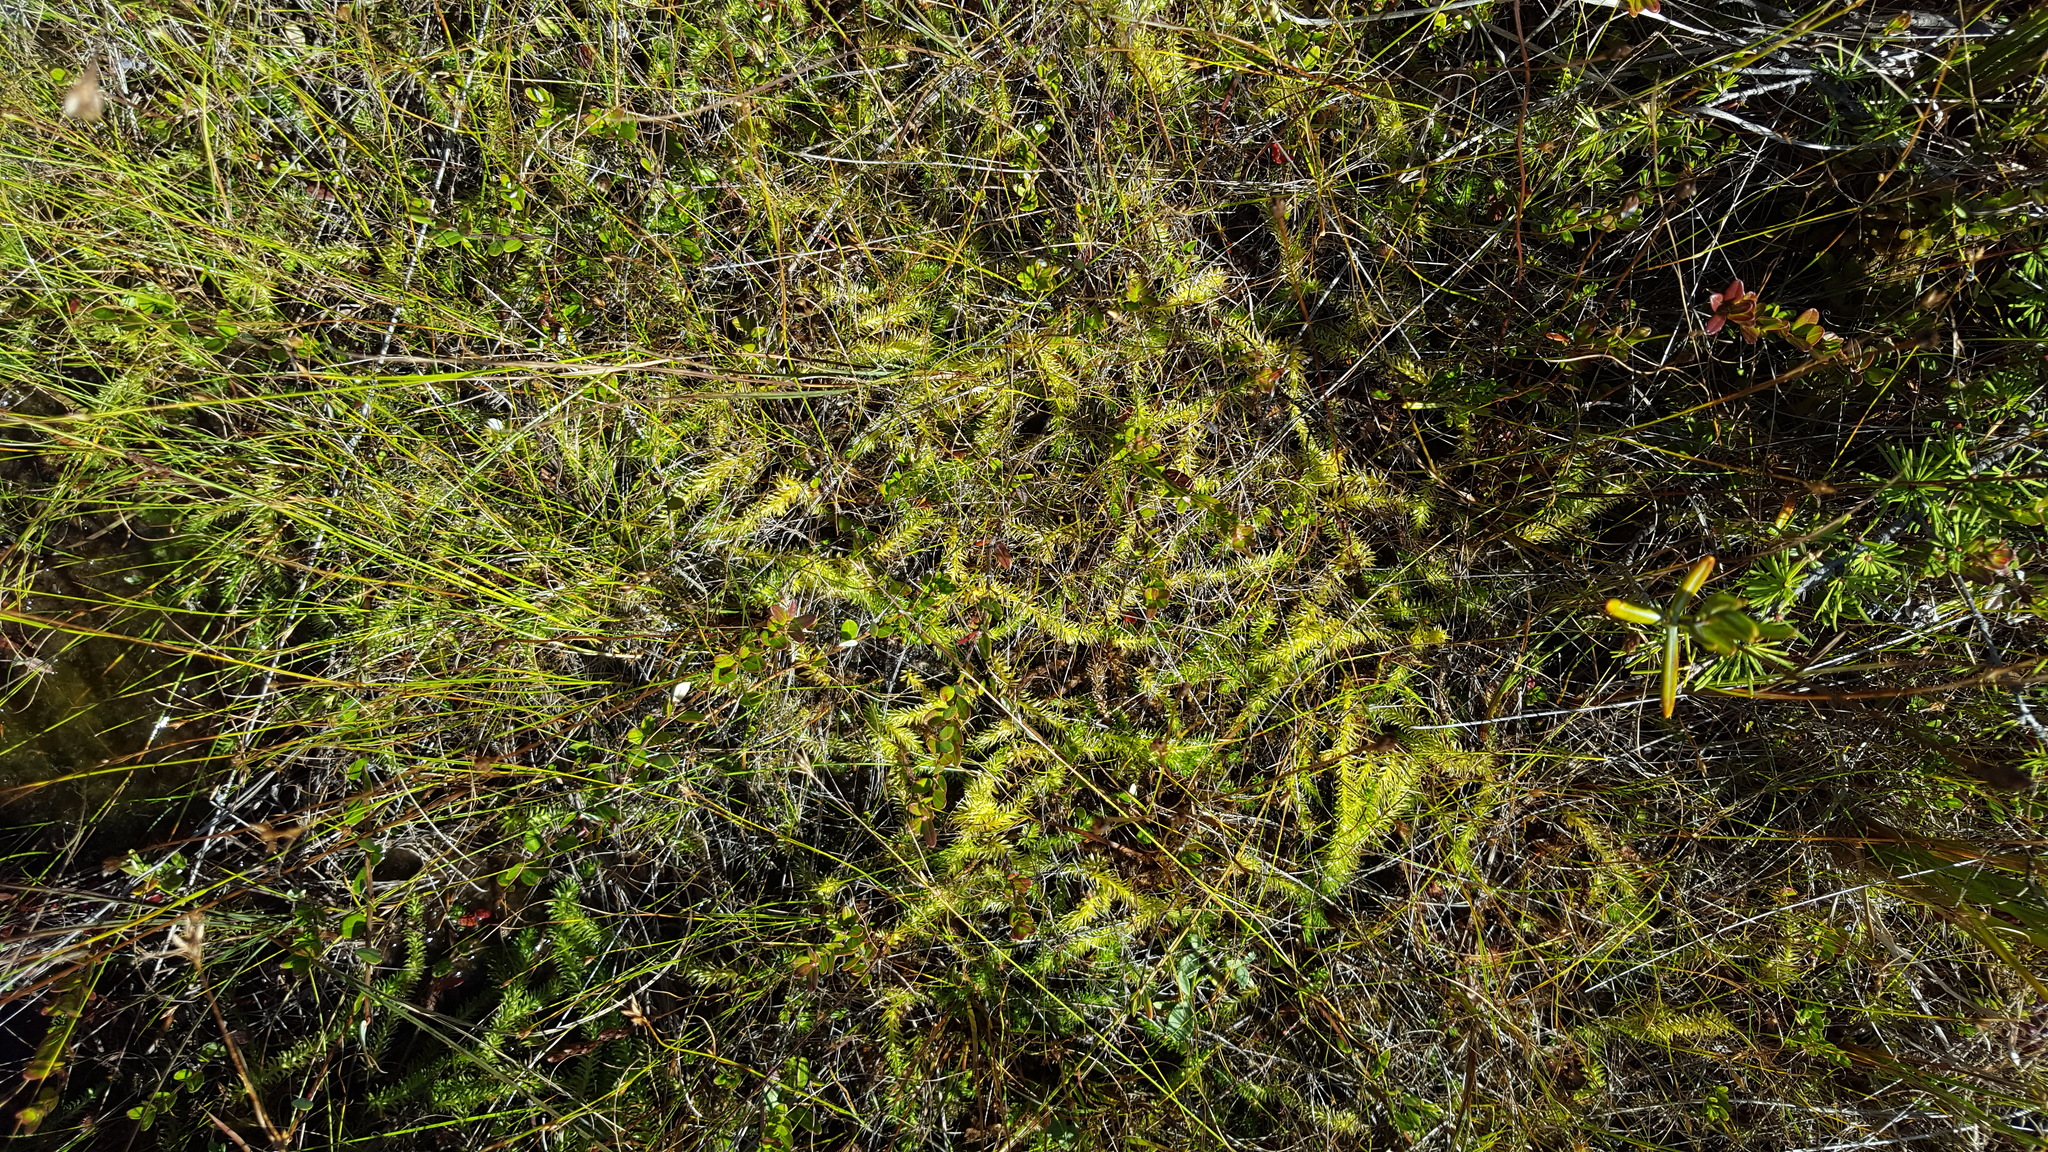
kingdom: Plantae
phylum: Tracheophyta
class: Lycopodiopsida
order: Lycopodiales
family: Lycopodiaceae
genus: Lycopodiella
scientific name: Lycopodiella inundata
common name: Marsh clubmoss
